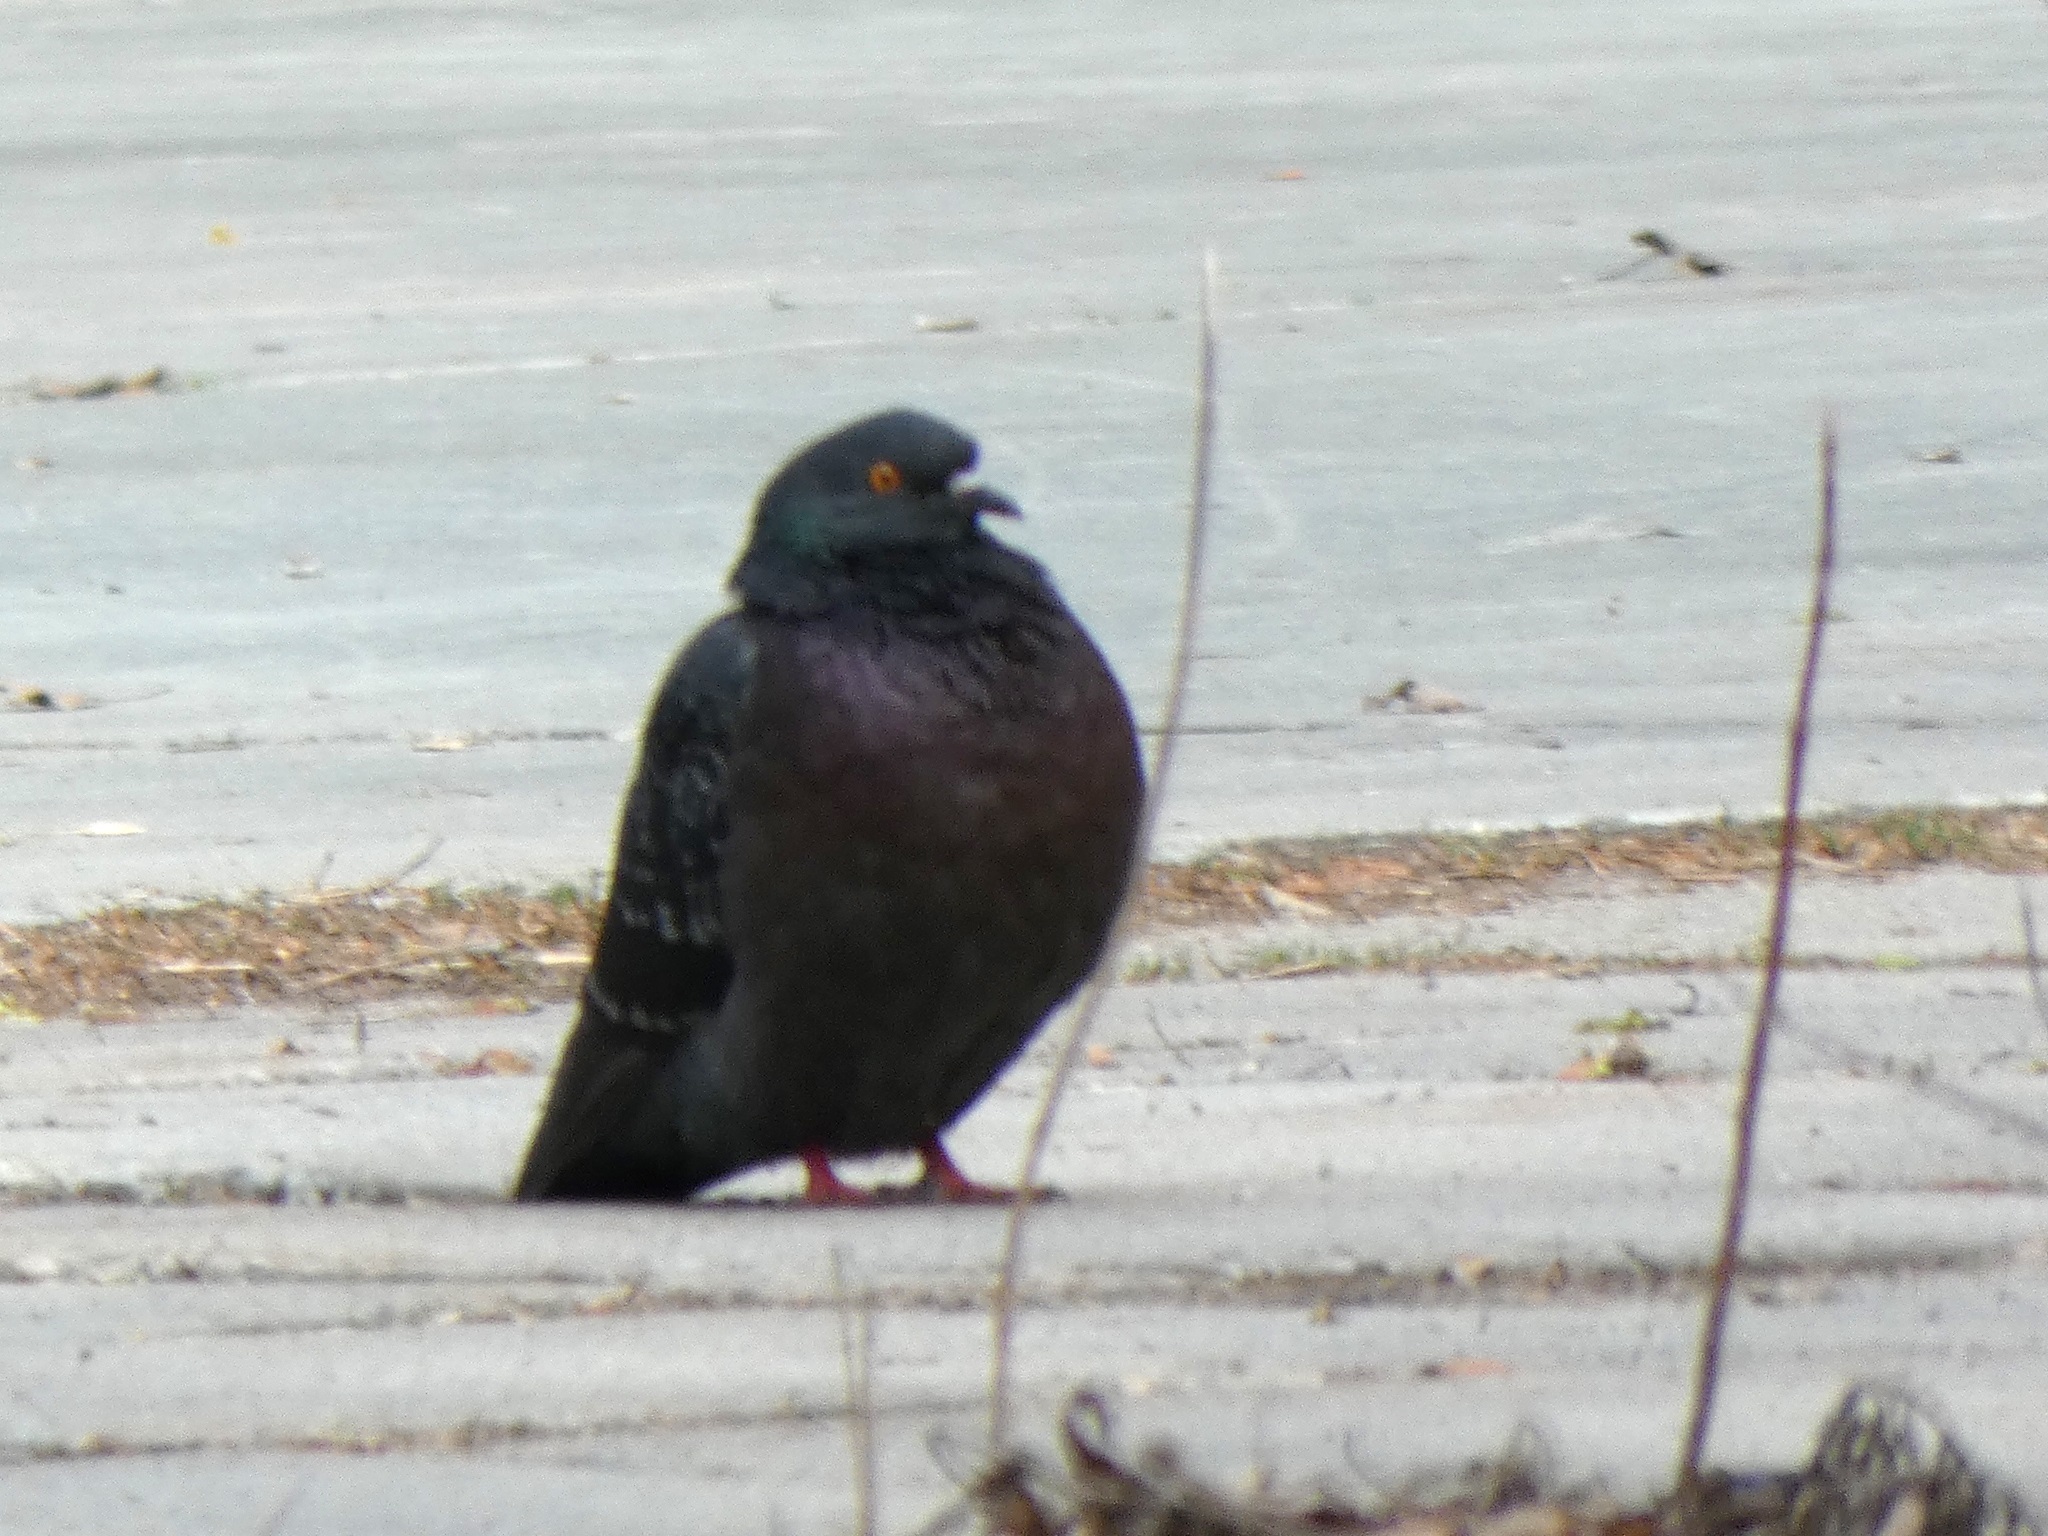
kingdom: Animalia
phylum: Chordata
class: Aves
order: Columbiformes
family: Columbidae
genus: Columba
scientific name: Columba livia
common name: Rock pigeon
